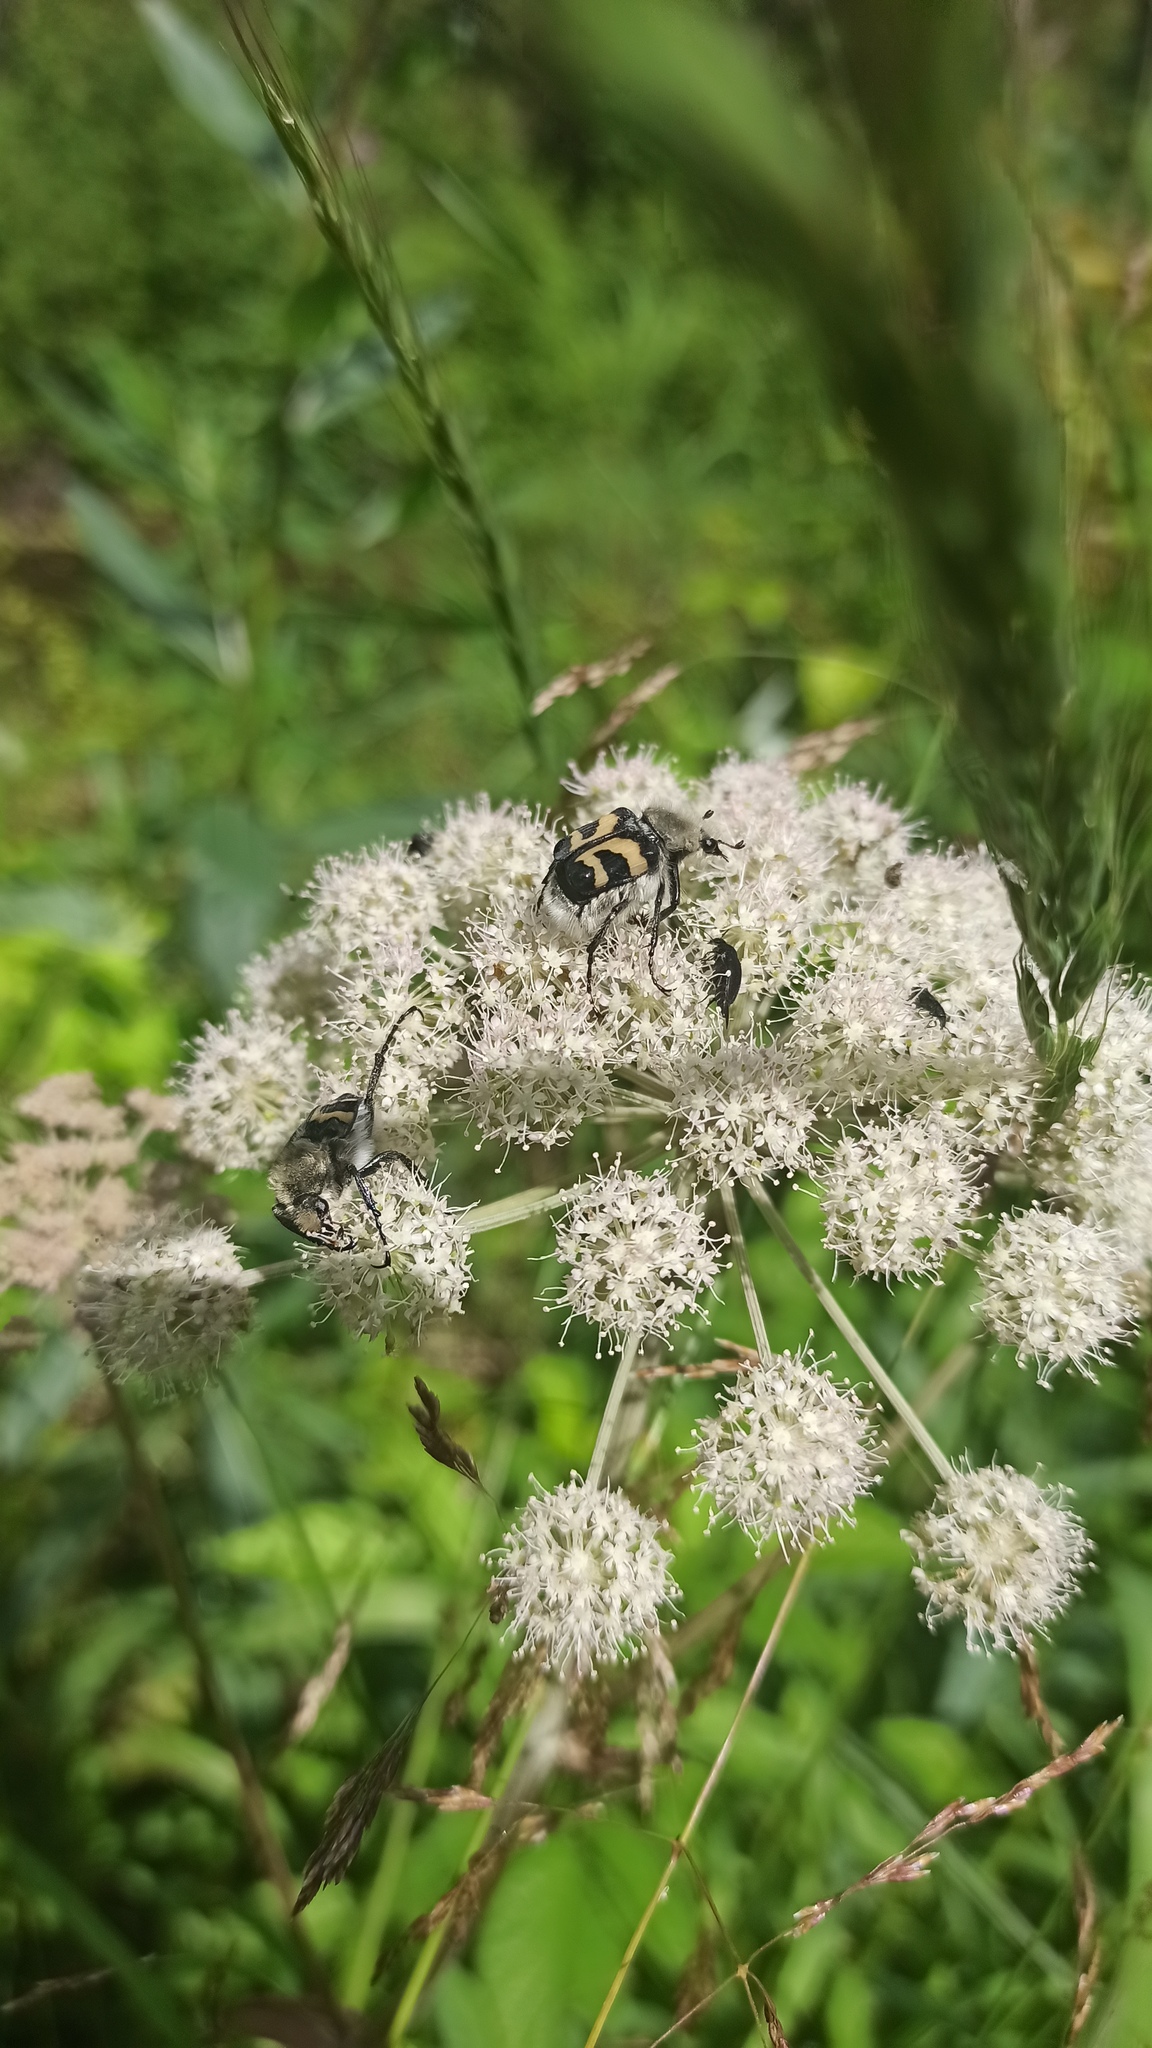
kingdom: Animalia
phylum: Arthropoda
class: Insecta
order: Coleoptera
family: Scarabaeidae
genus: Trichius
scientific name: Trichius fasciatus
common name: Bee beetle
